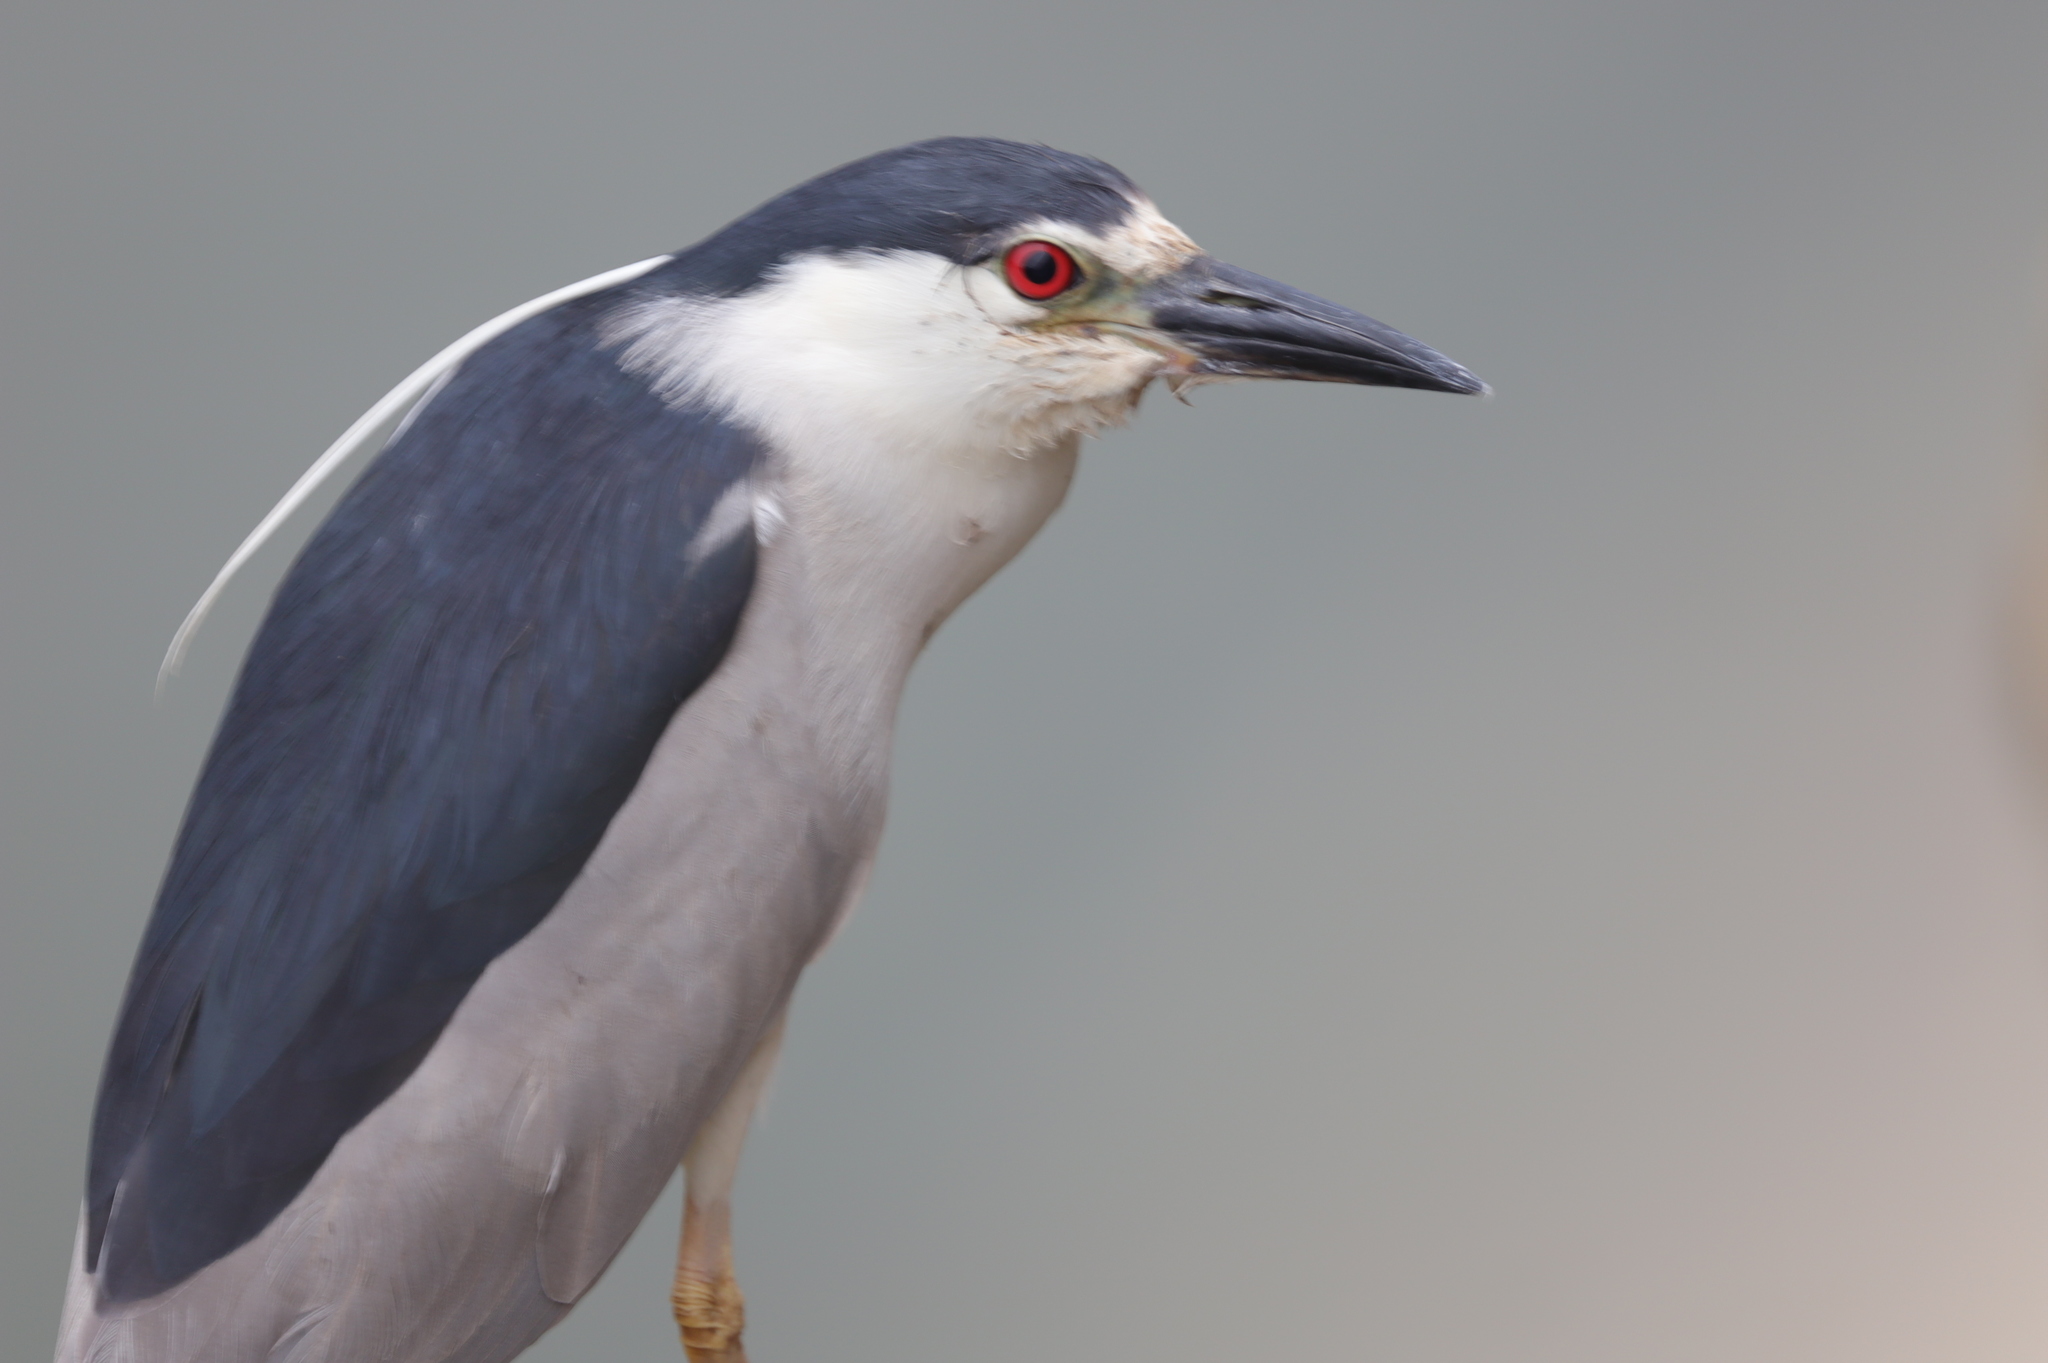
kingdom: Animalia
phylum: Chordata
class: Aves
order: Pelecaniformes
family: Ardeidae
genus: Nycticorax
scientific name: Nycticorax nycticorax
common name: Black-crowned night heron
